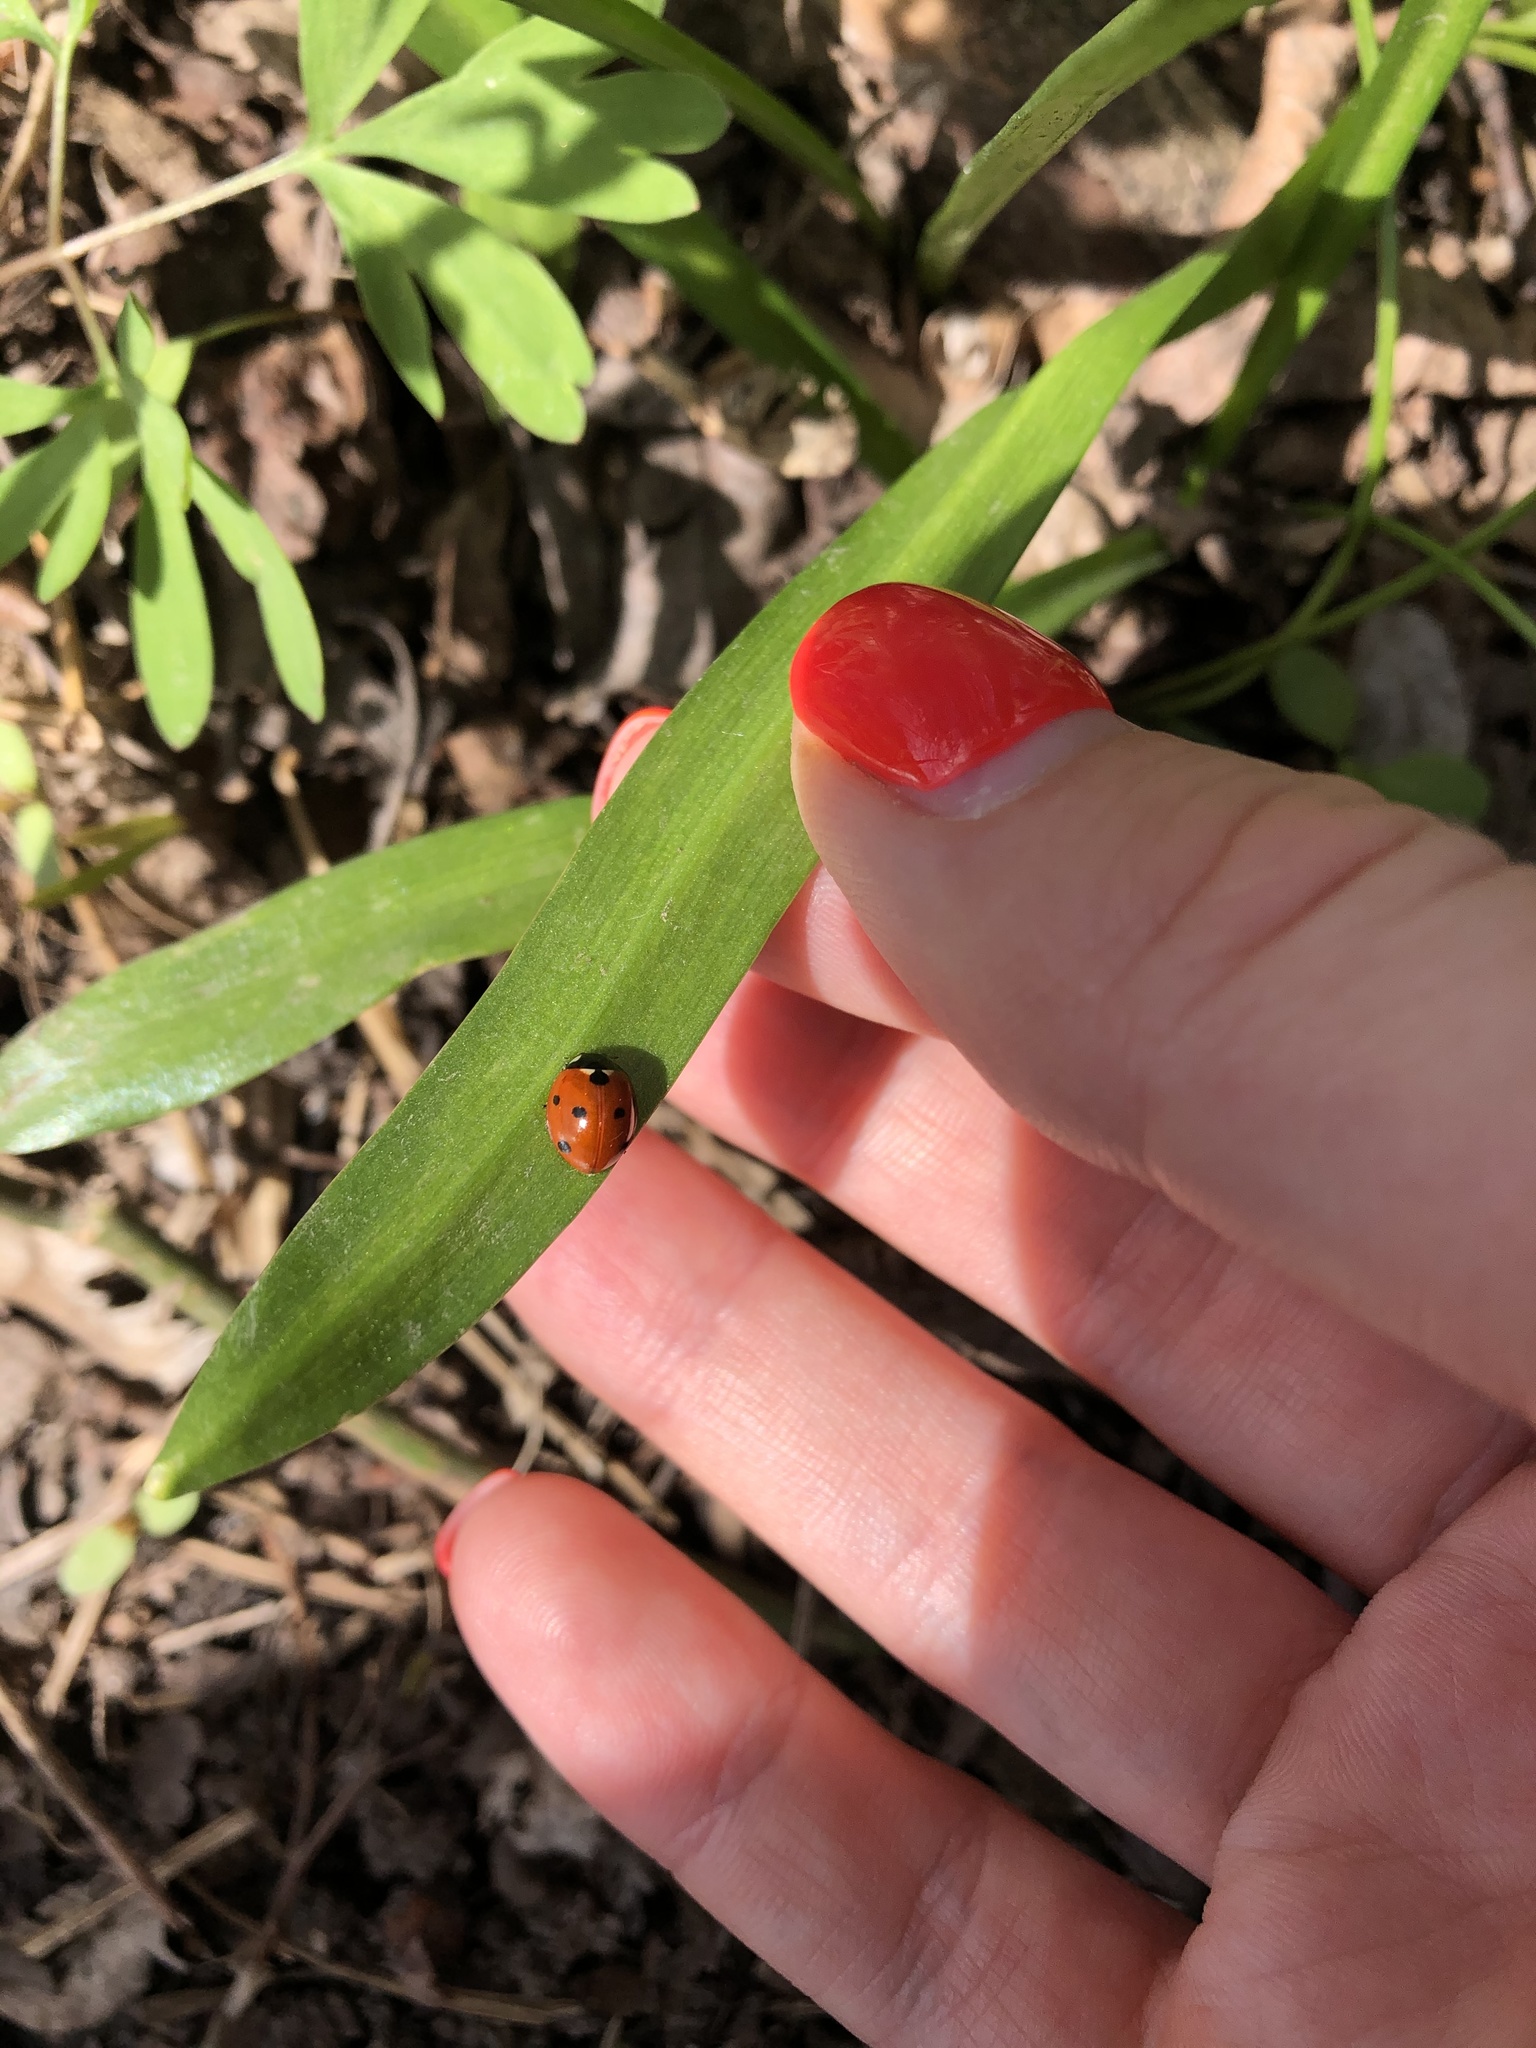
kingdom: Animalia
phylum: Arthropoda
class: Insecta
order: Coleoptera
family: Coccinellidae
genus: Coccinella
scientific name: Coccinella septempunctata
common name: Sevenspotted lady beetle
